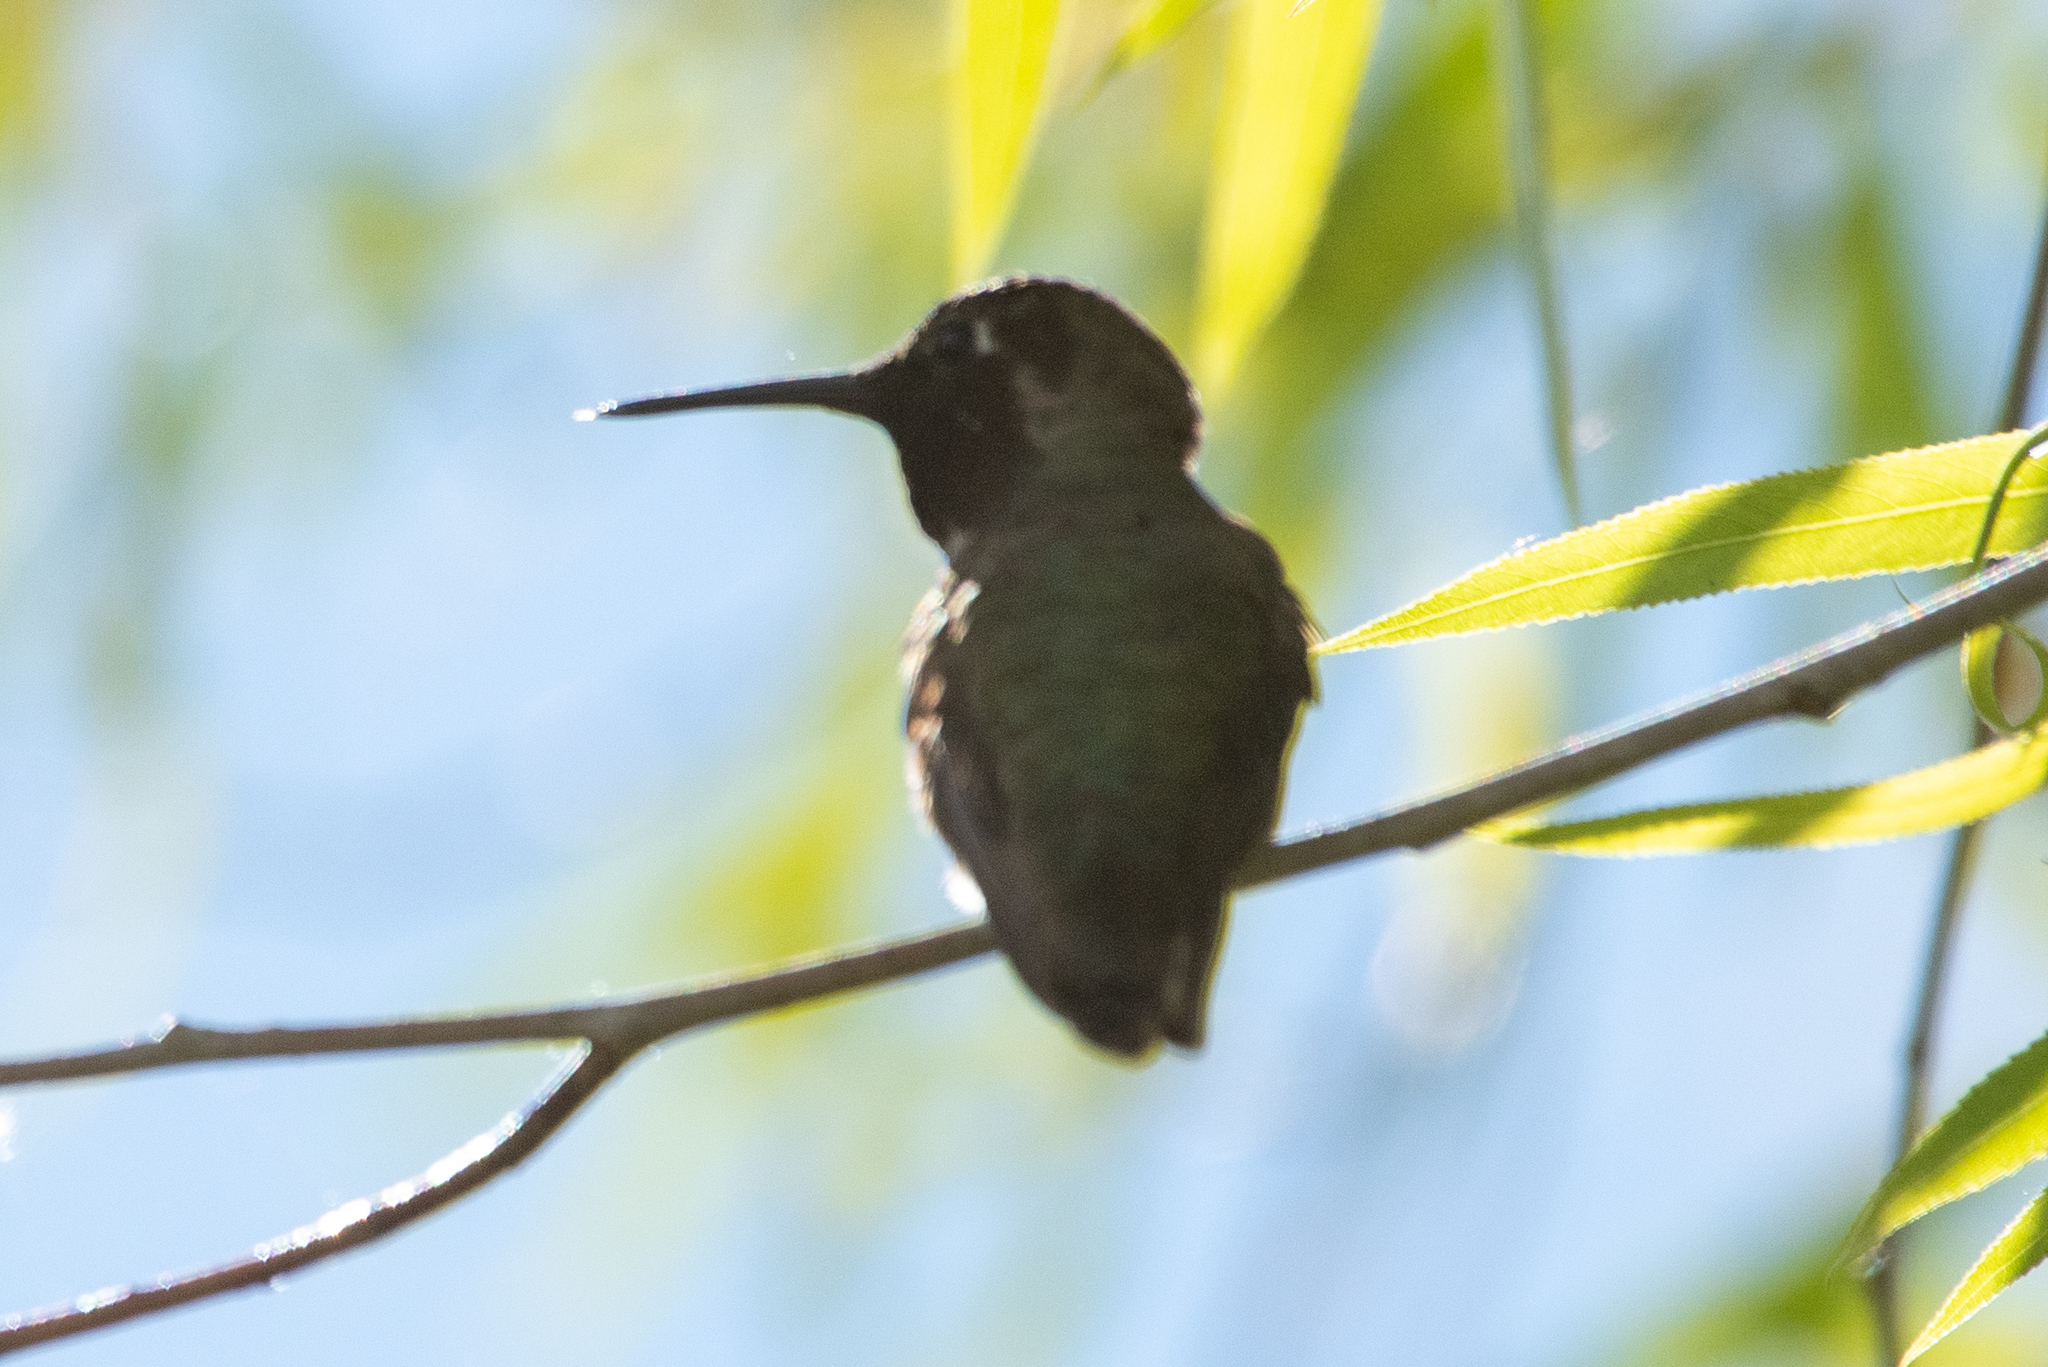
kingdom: Animalia
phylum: Chordata
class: Aves
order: Apodiformes
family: Trochilidae
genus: Calypte
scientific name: Calypte anna
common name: Anna's hummingbird
